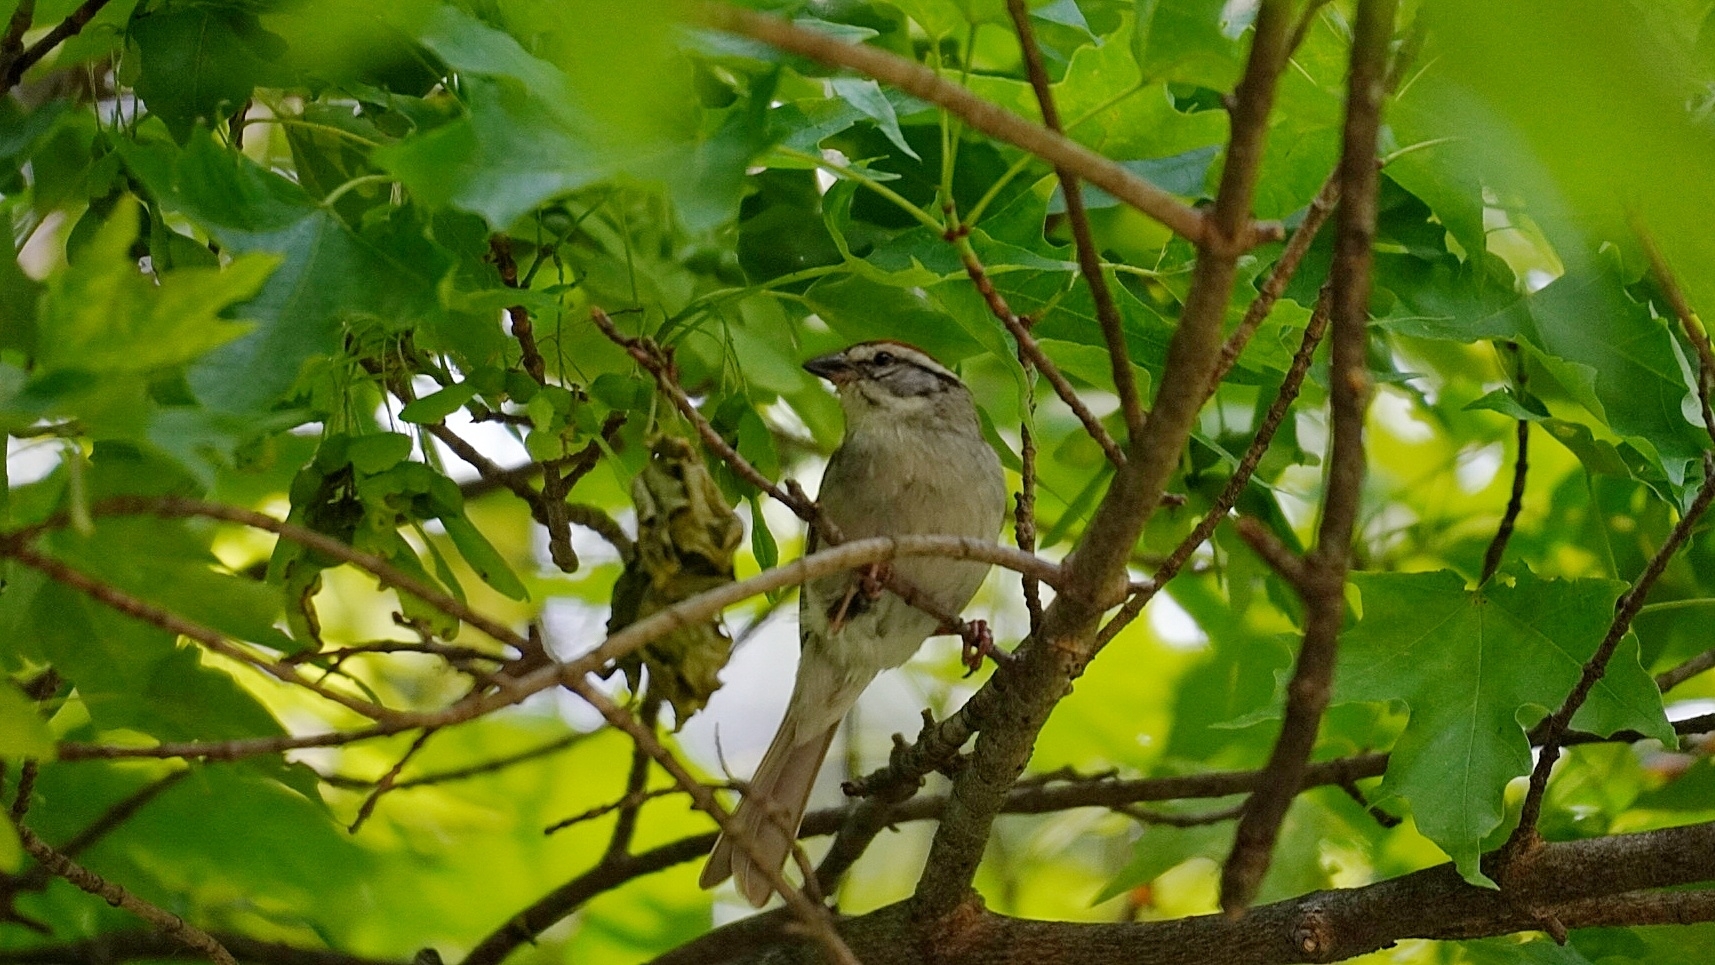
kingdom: Animalia
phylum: Chordata
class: Aves
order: Passeriformes
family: Passerellidae
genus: Spizella
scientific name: Spizella passerina
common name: Chipping sparrow
